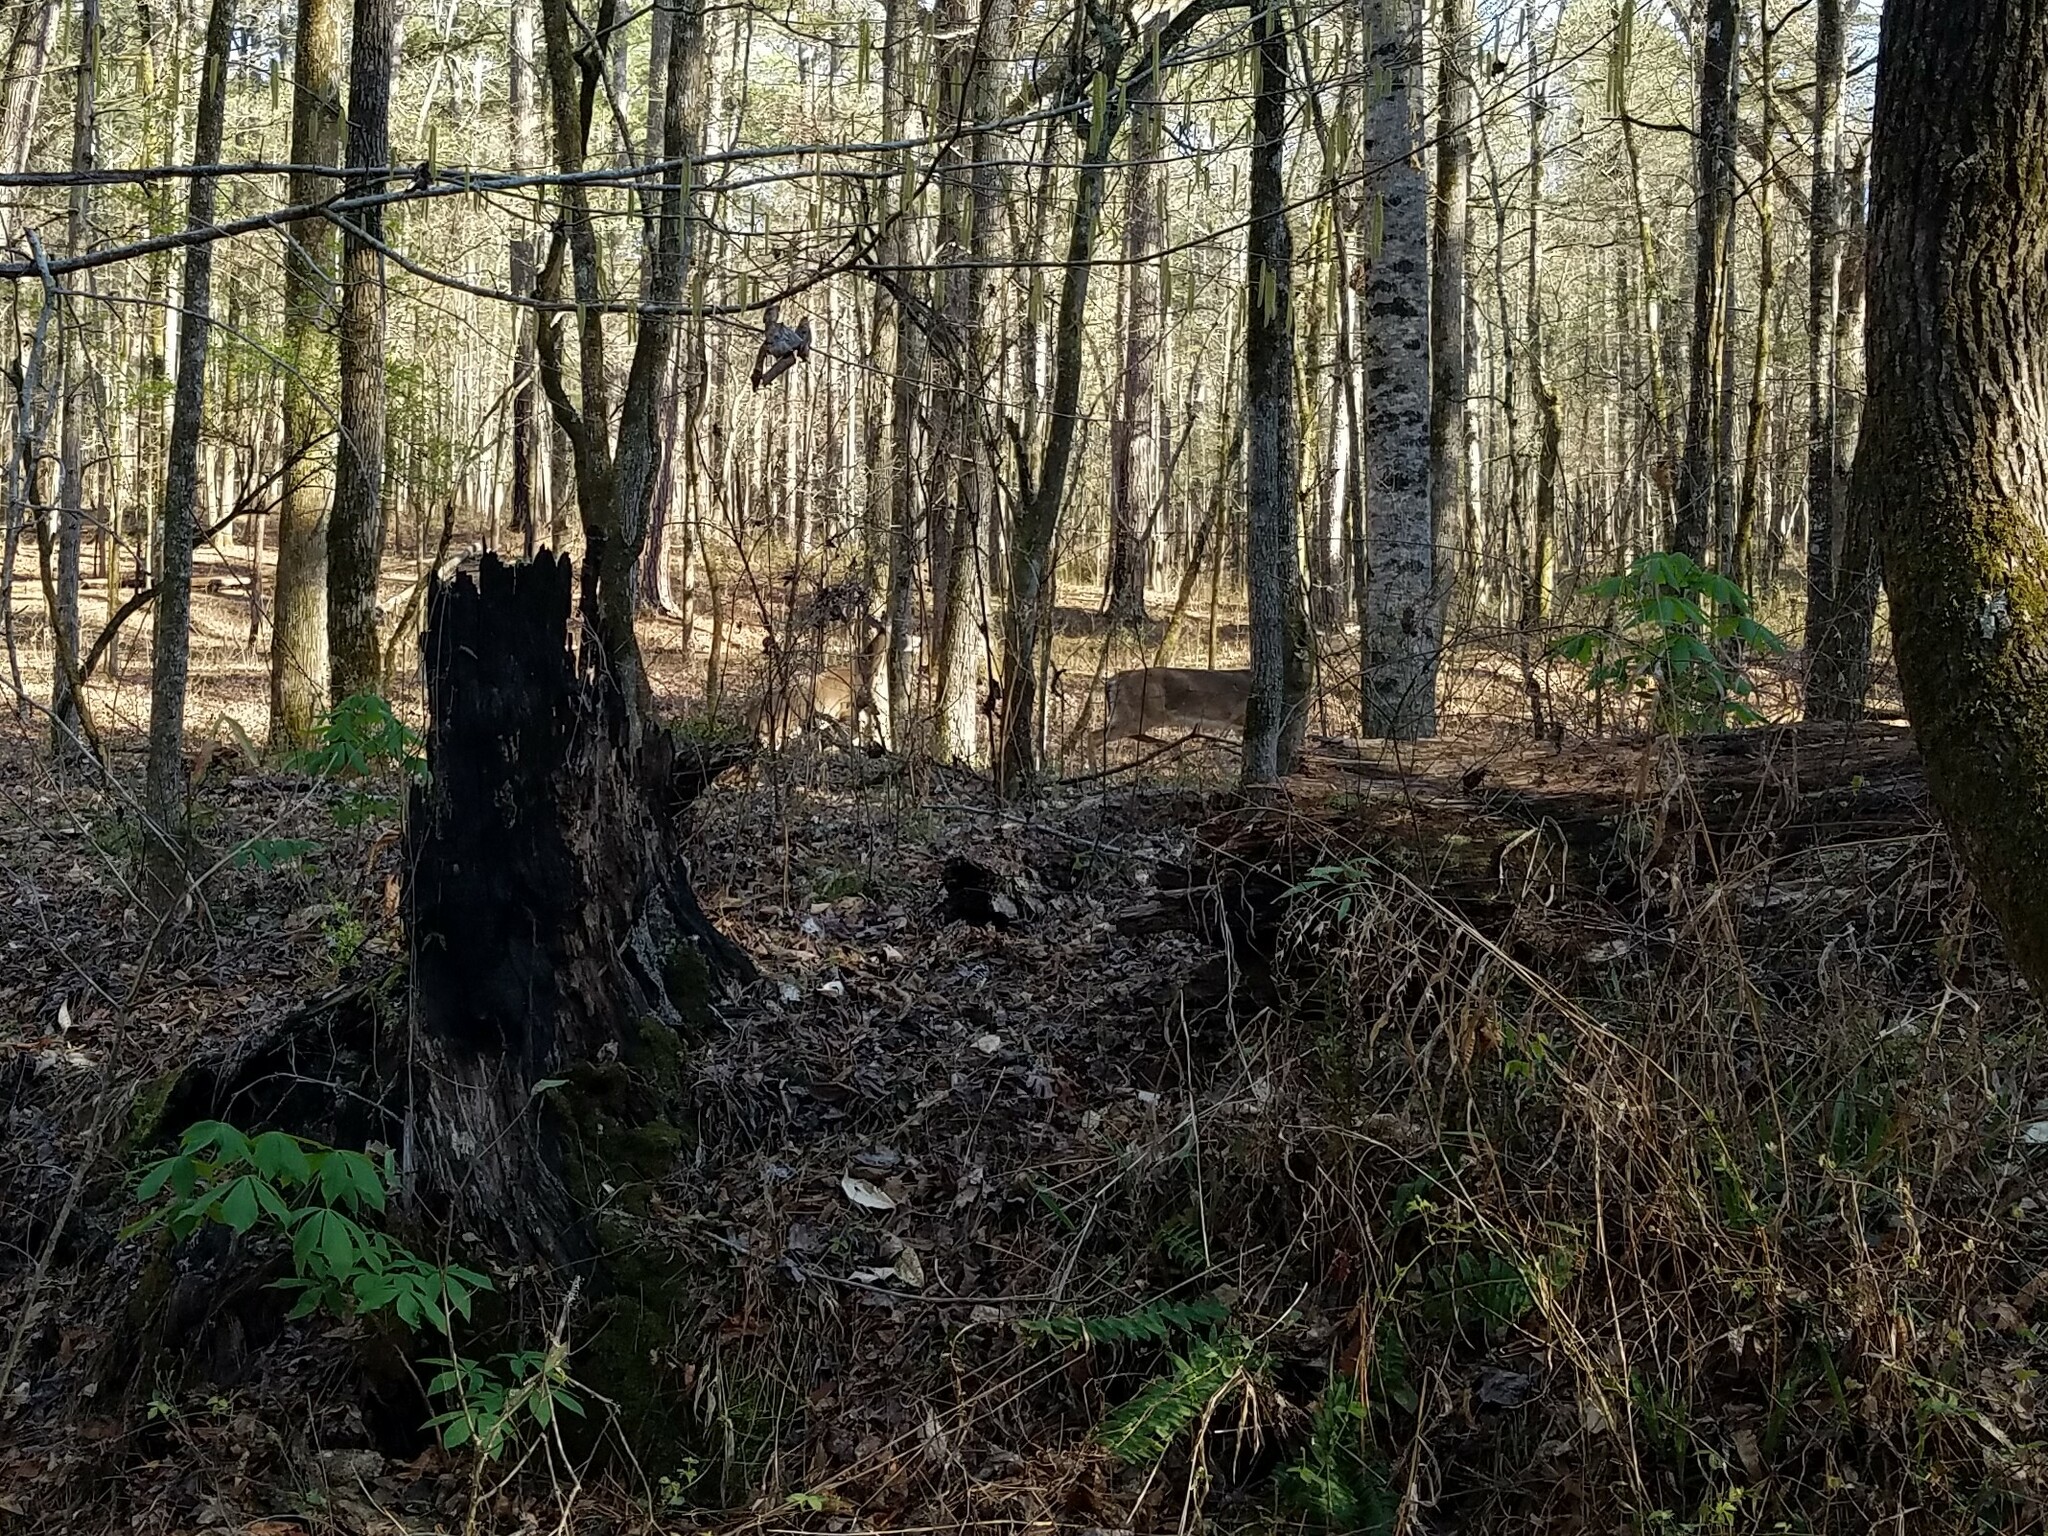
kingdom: Animalia
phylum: Chordata
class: Mammalia
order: Artiodactyla
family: Cervidae
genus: Odocoileus
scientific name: Odocoileus virginianus
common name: White-tailed deer
